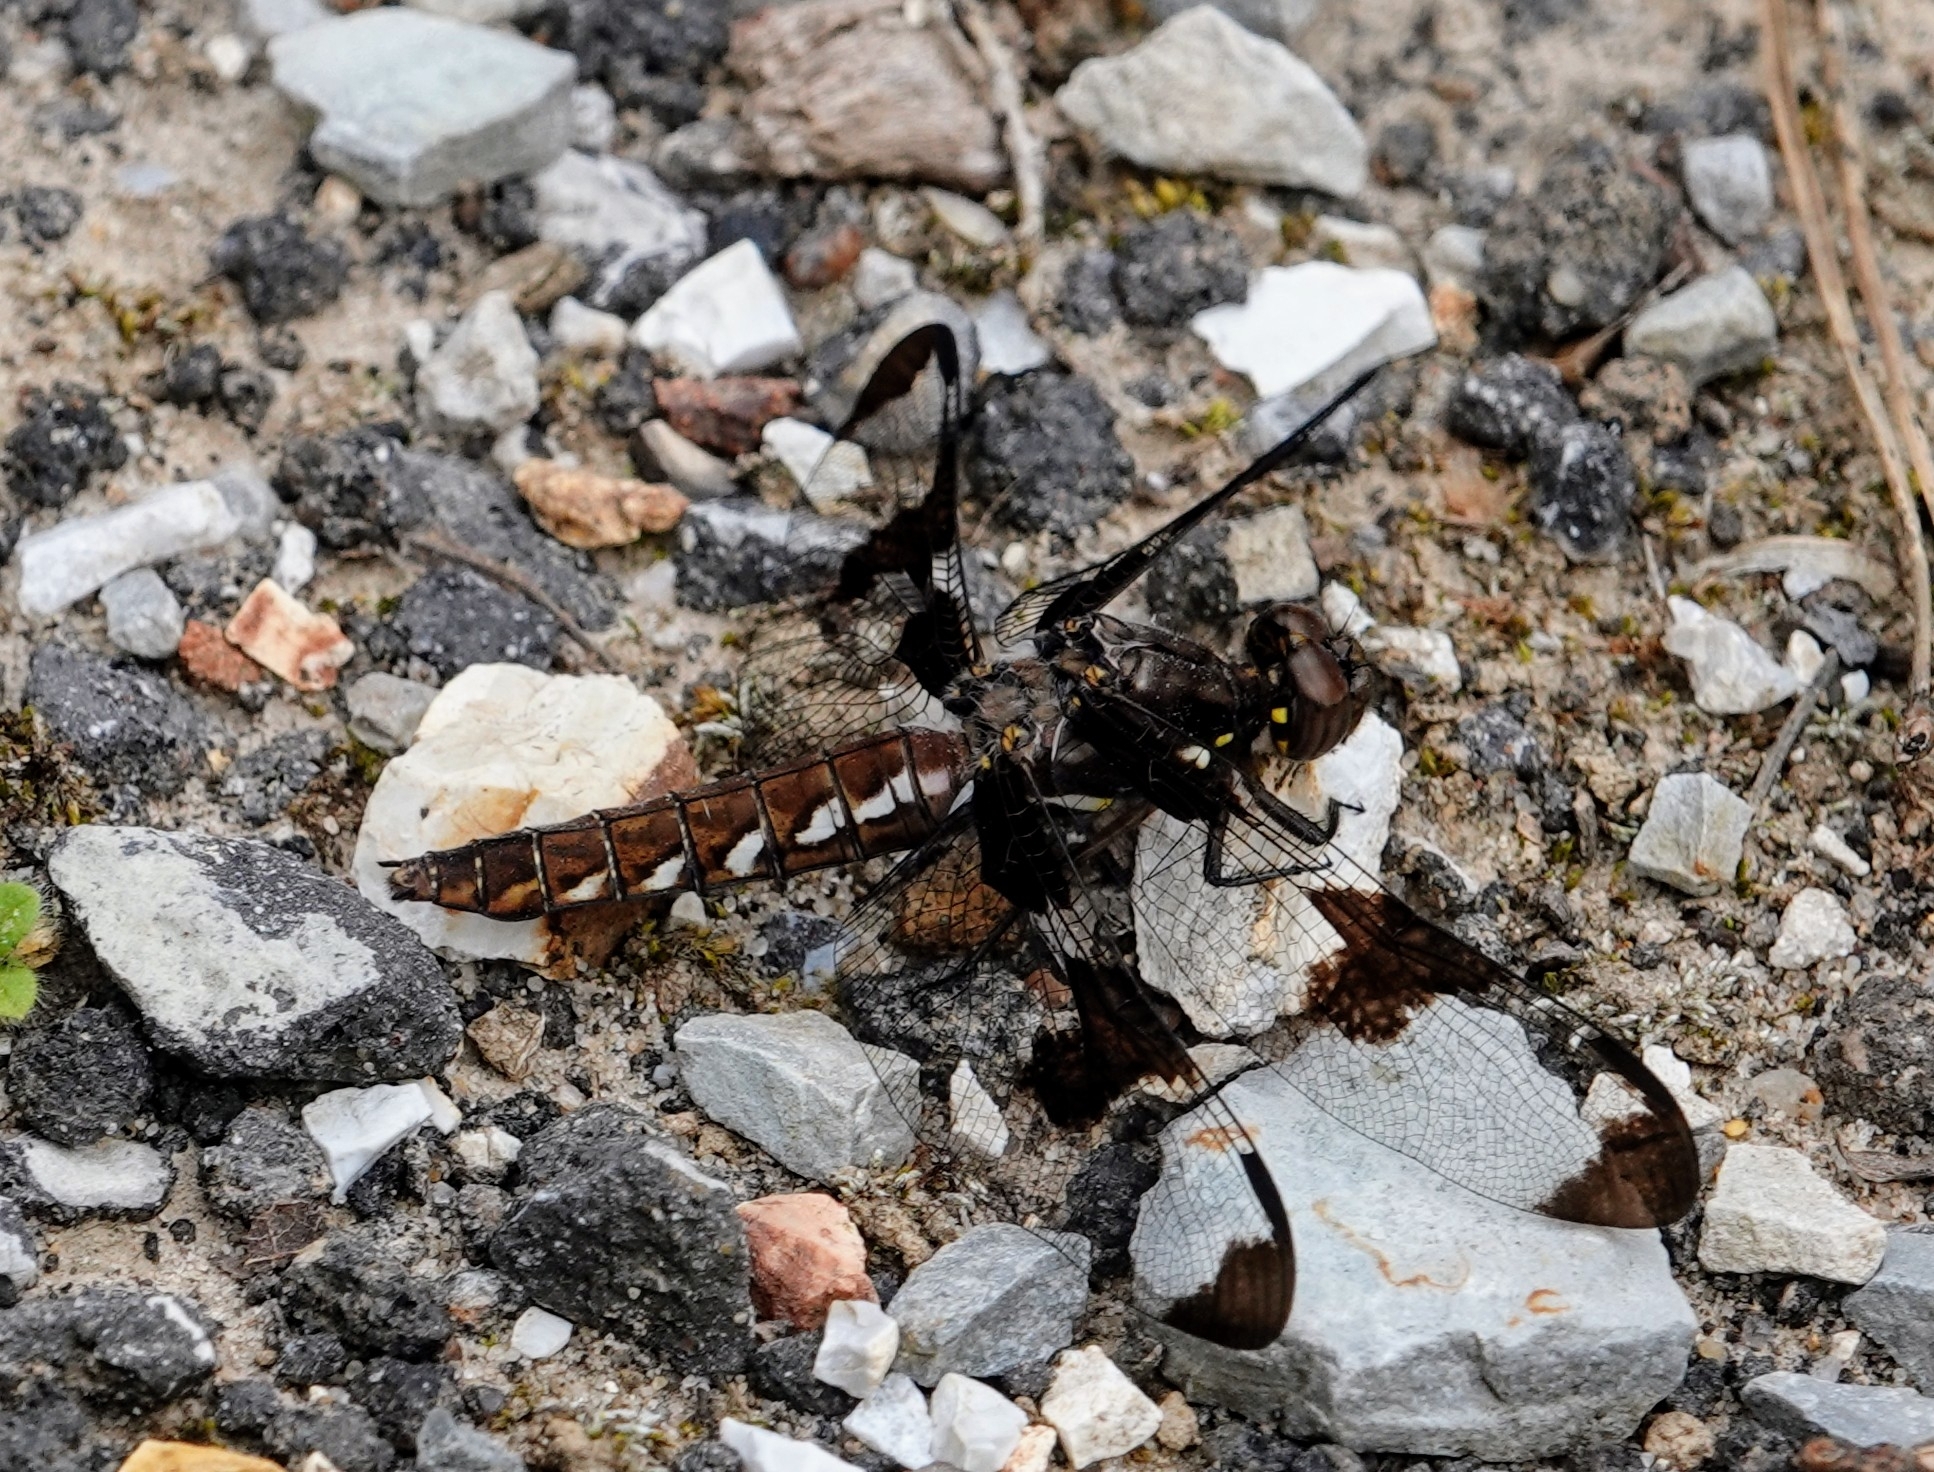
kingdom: Animalia
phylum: Arthropoda
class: Insecta
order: Odonata
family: Libellulidae
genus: Plathemis
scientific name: Plathemis lydia
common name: Common whitetail
